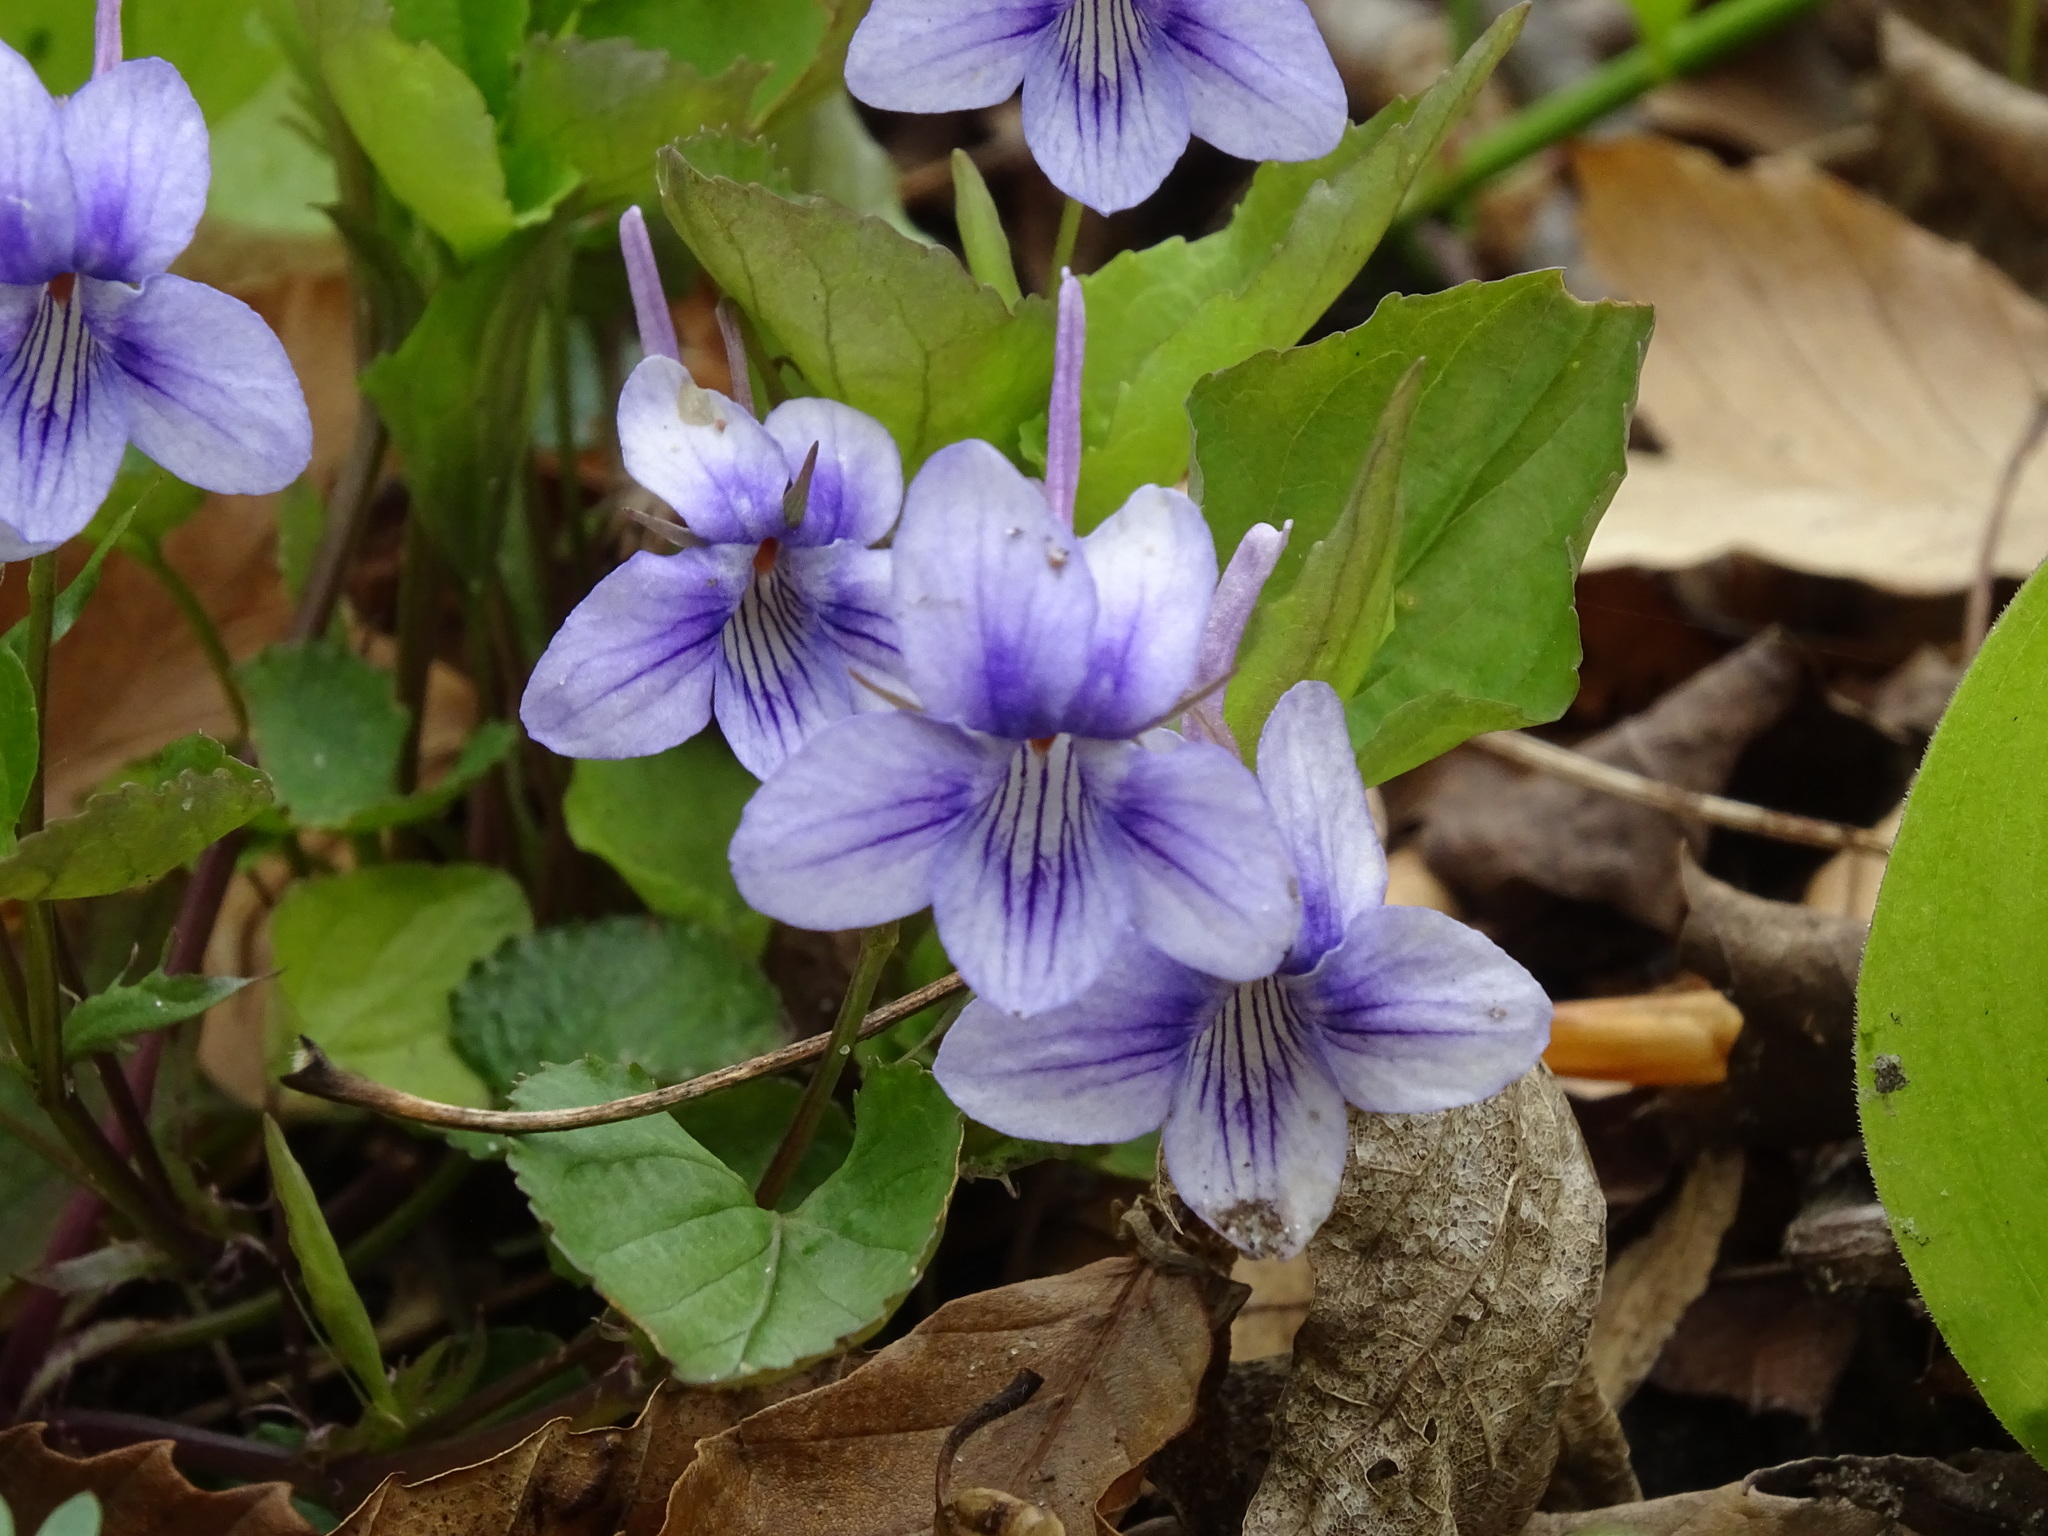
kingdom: Plantae
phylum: Tracheophyta
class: Magnoliopsida
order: Malpighiales
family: Violaceae
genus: Viola
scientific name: Viola rostrata
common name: Long-spur violet
